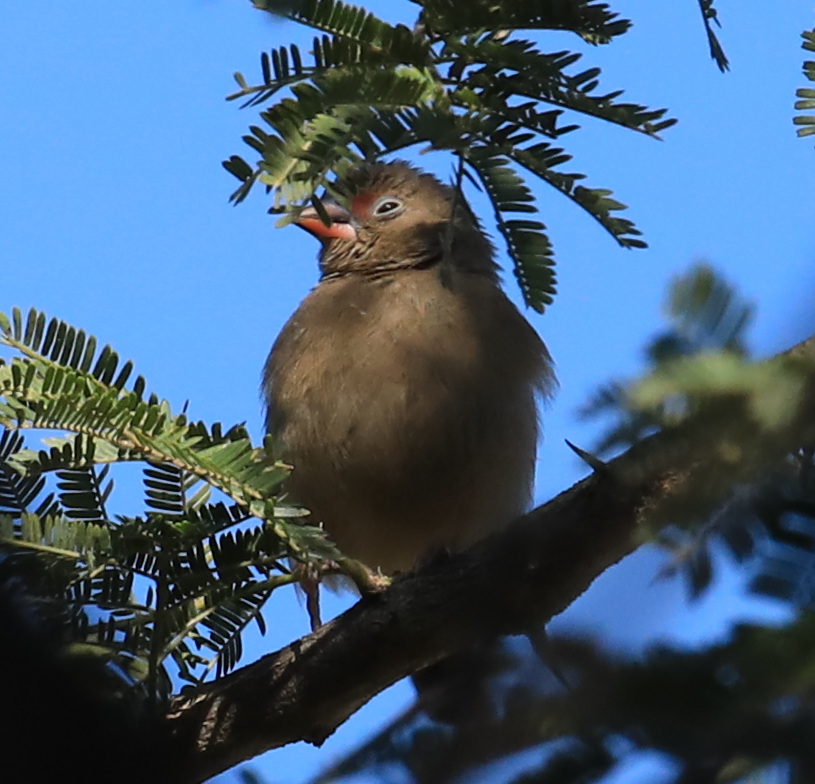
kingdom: Animalia
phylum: Chordata
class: Aves
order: Passeriformes
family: Estrildidae
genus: Lagonosticta
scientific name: Lagonosticta senegala
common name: Red-billed firefinch
